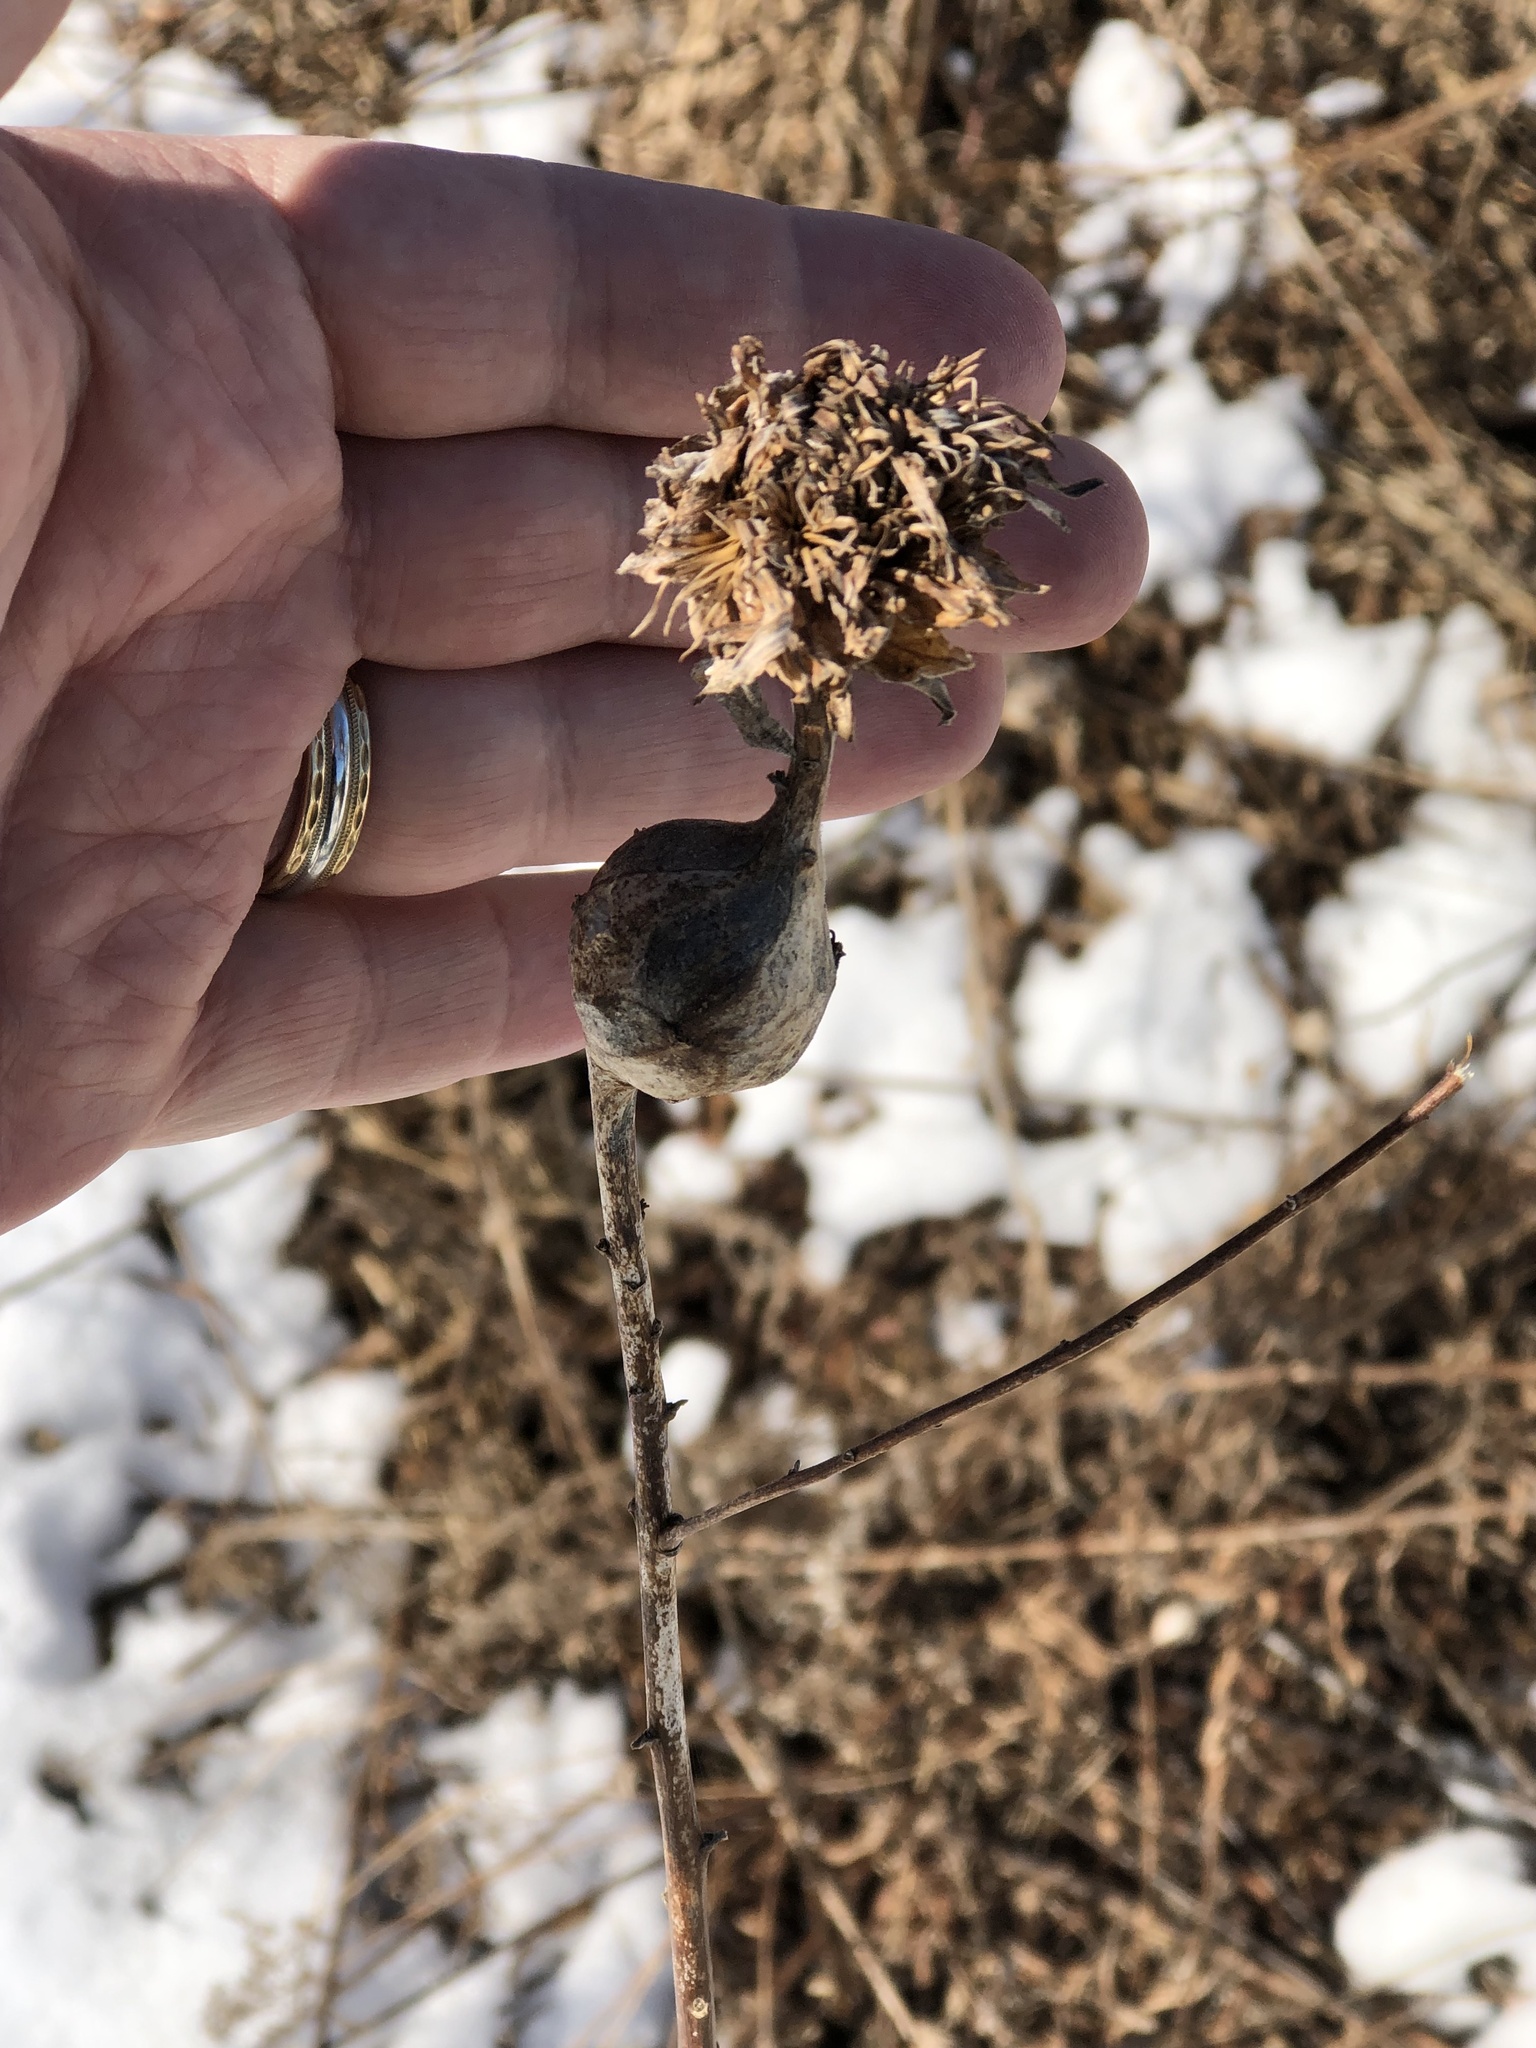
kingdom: Animalia
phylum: Arthropoda
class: Insecta
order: Diptera
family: Cecidomyiidae
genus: Rhopalomyia
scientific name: Rhopalomyia solidaginis
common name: Goldenrod bunch gall midge
